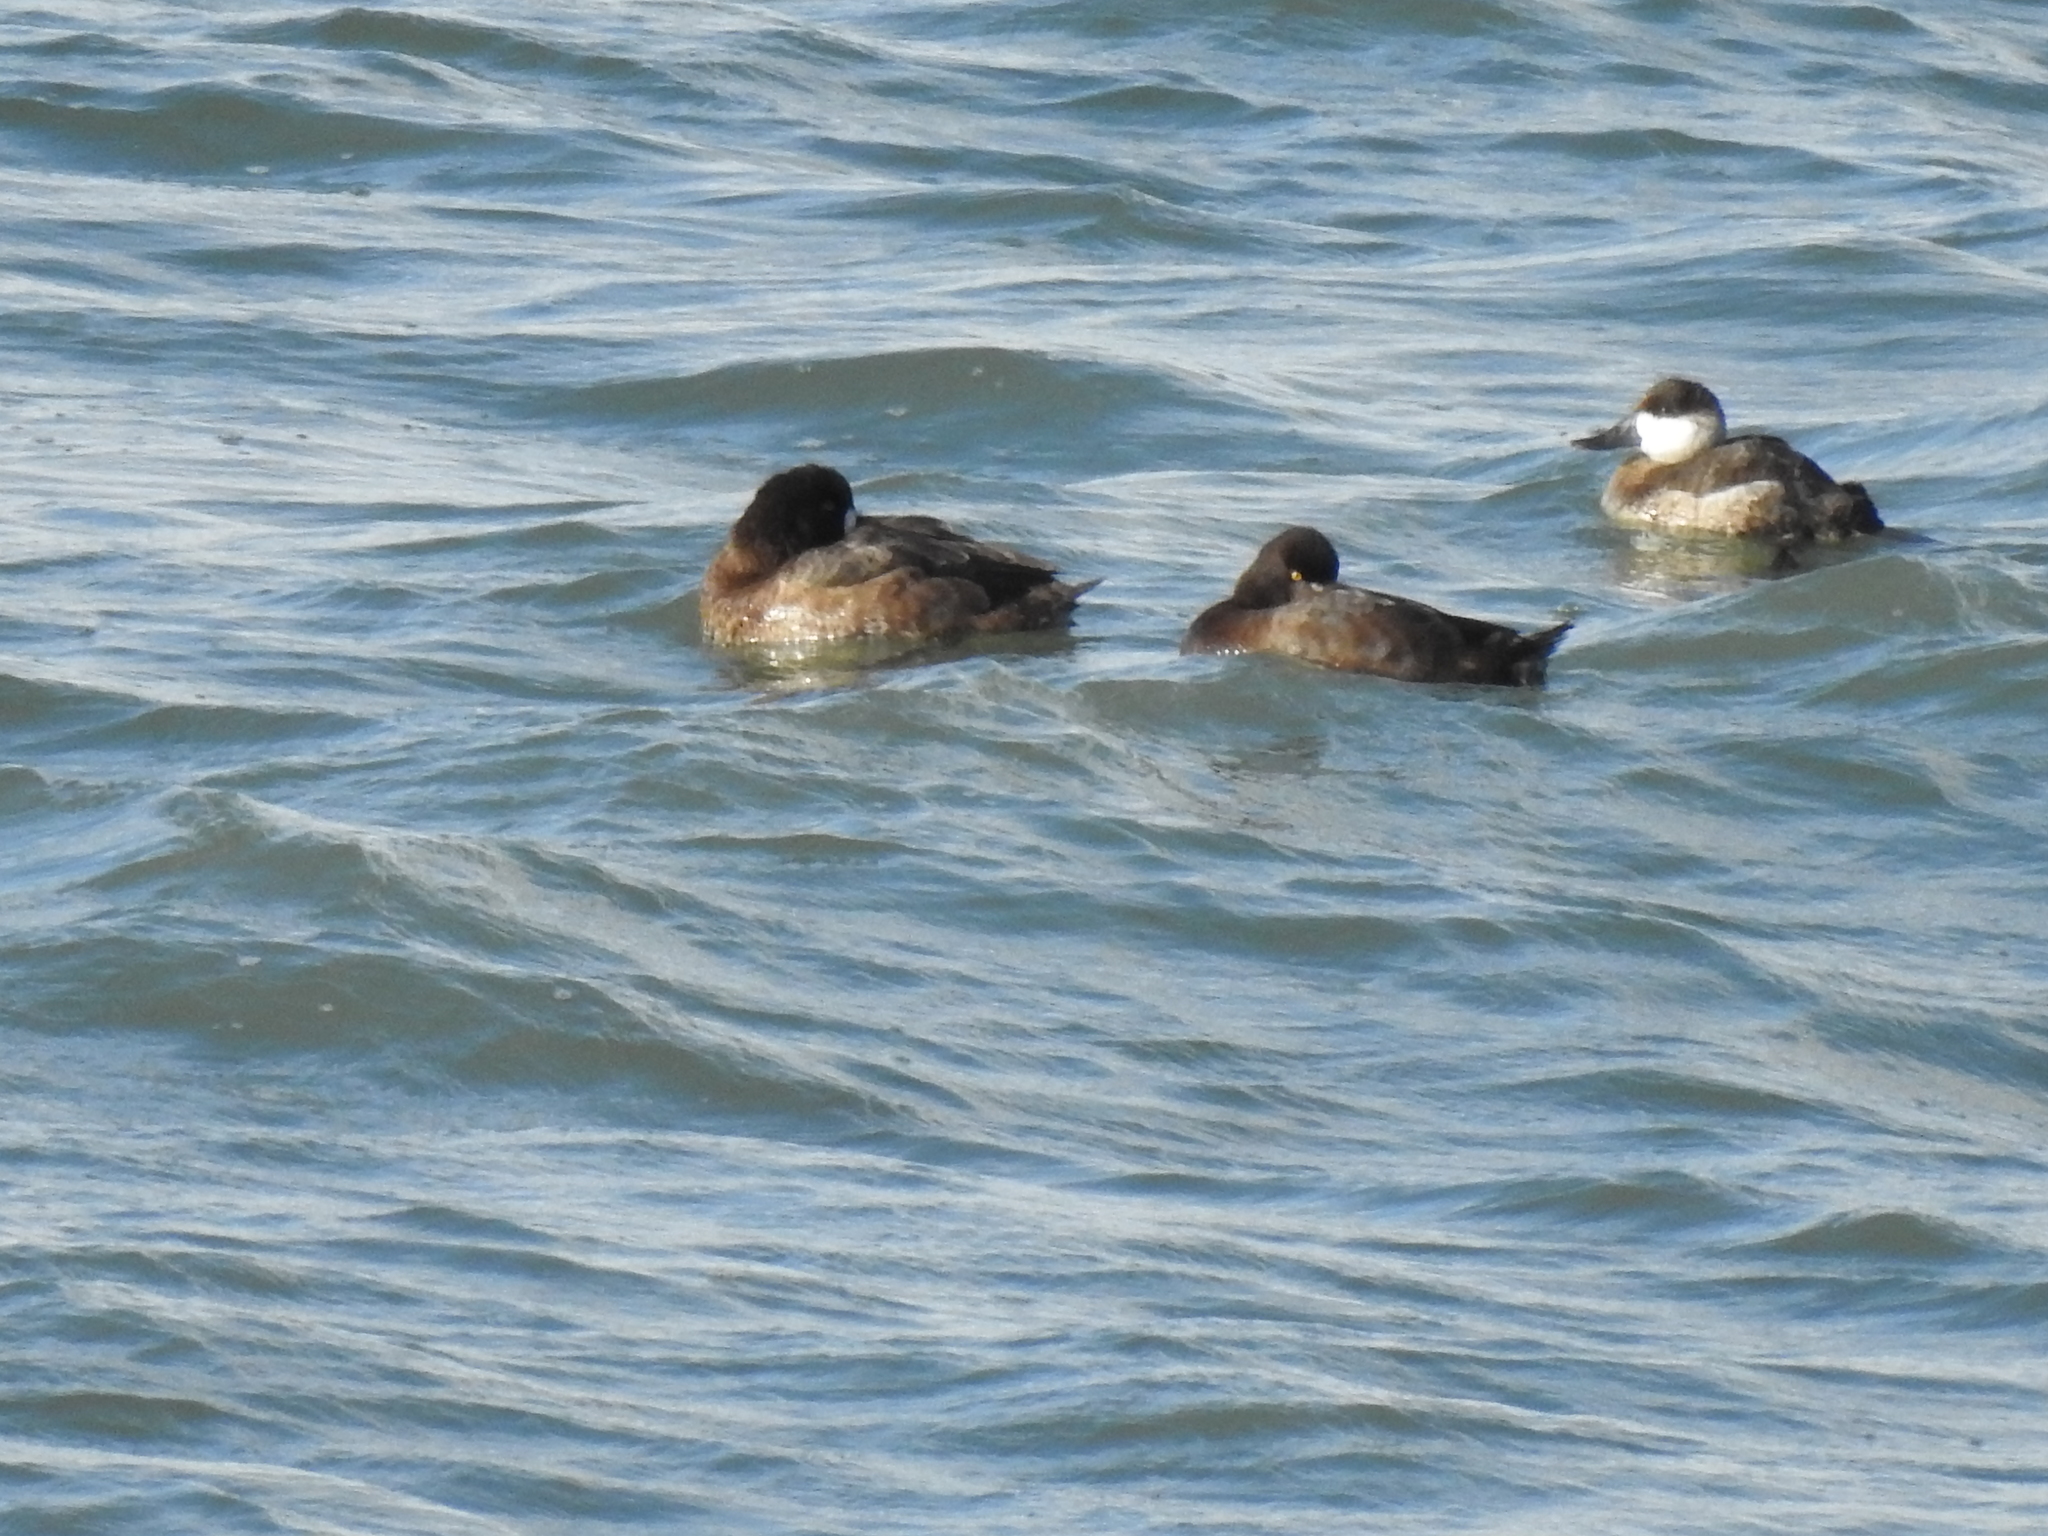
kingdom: Animalia
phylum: Chordata
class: Aves
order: Anseriformes
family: Anatidae
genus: Oxyura
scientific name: Oxyura jamaicensis
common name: Ruddy duck
